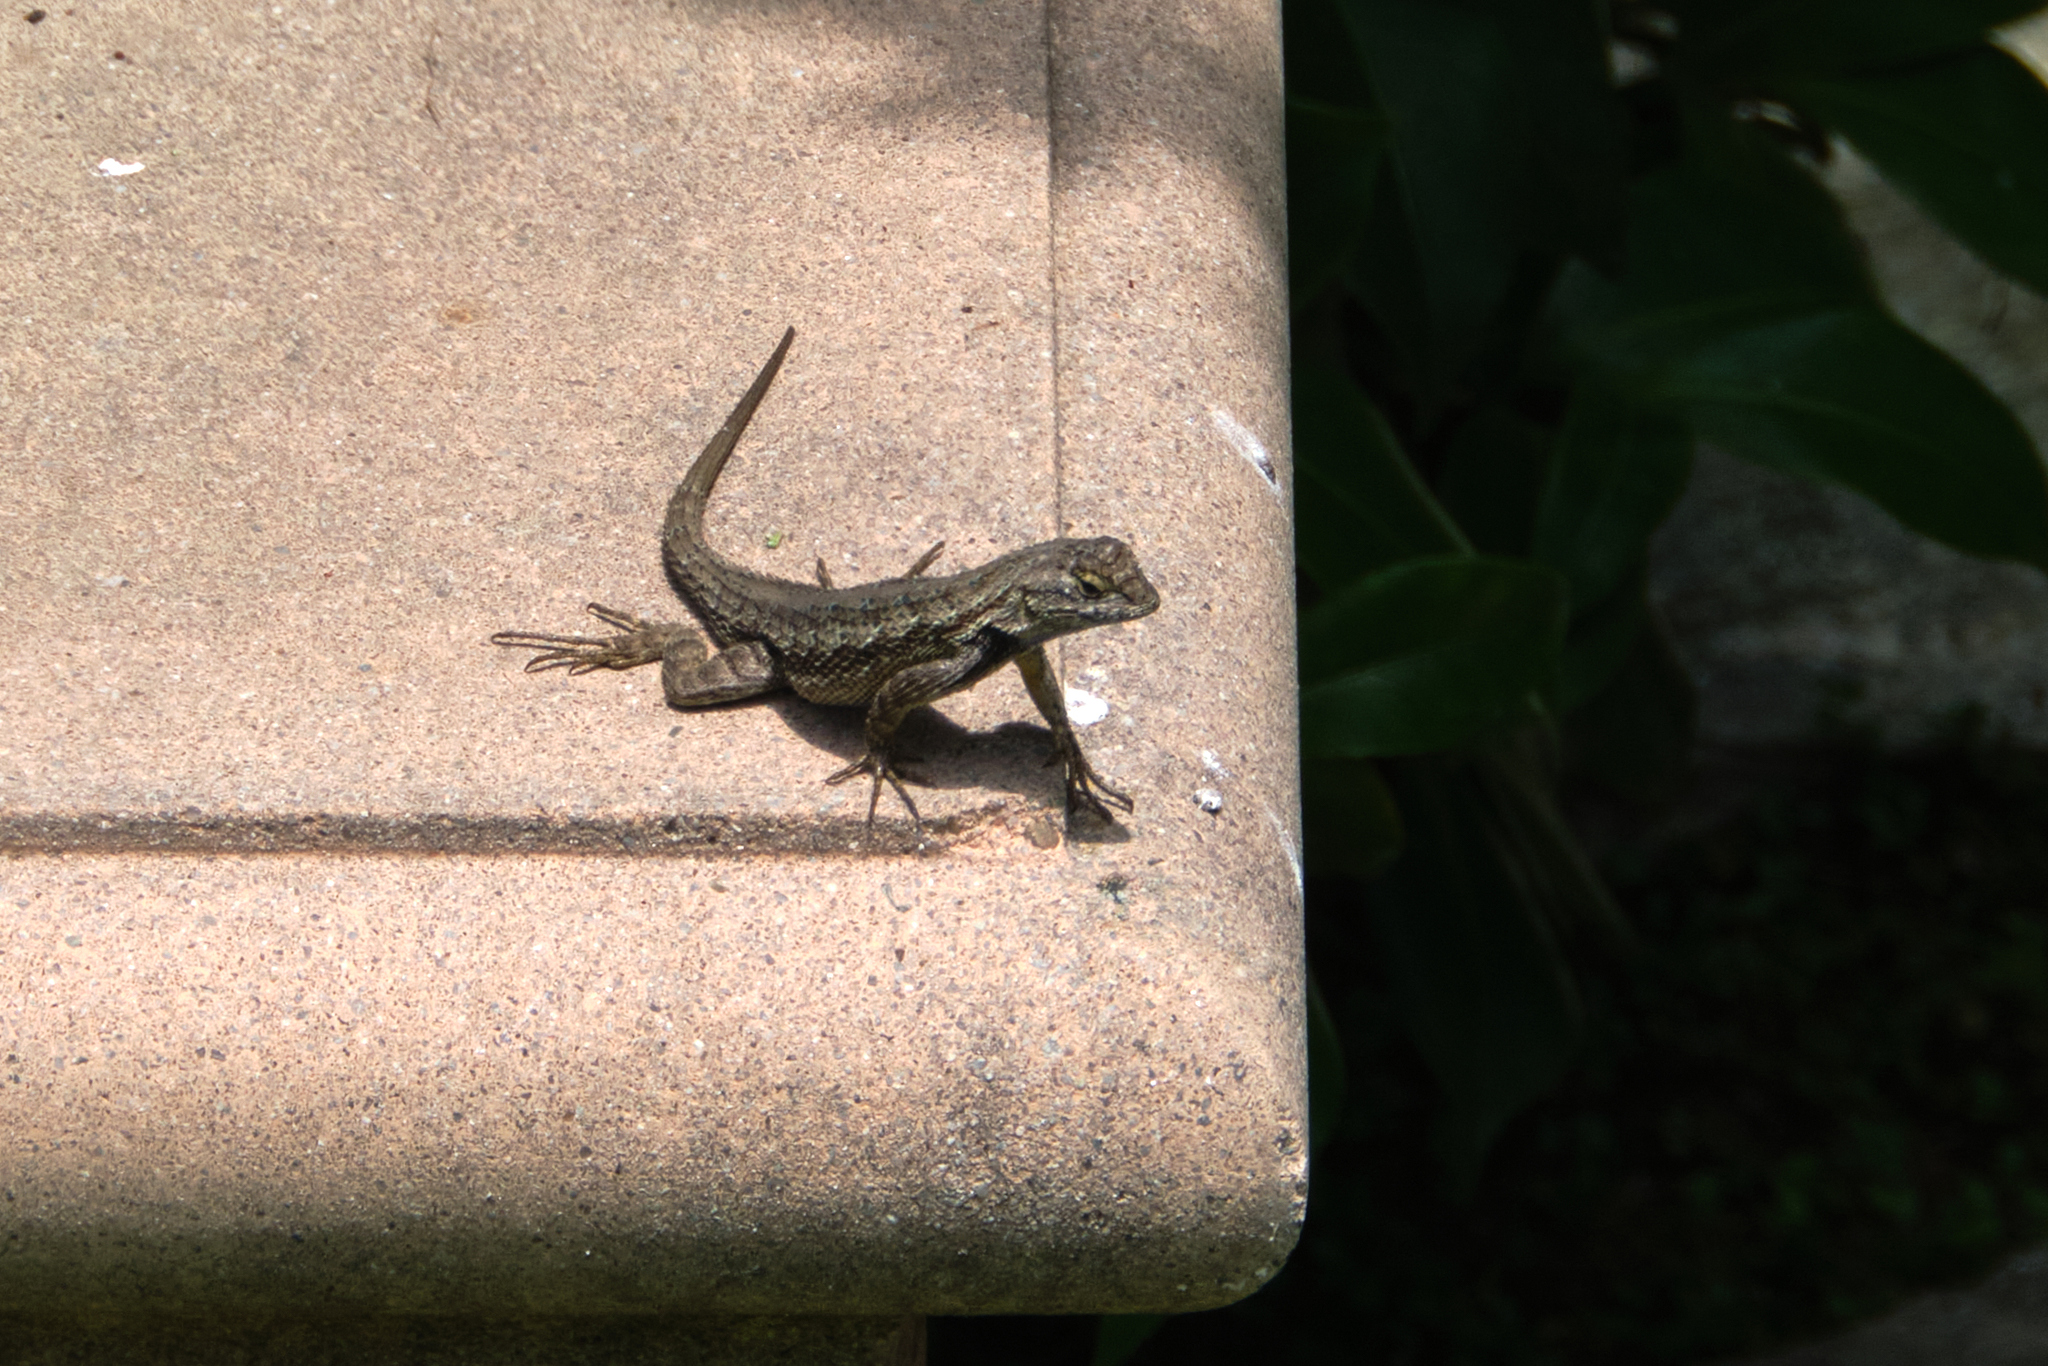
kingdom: Animalia
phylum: Chordata
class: Squamata
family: Phrynosomatidae
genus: Sceloporus
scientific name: Sceloporus occidentalis
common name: Western fence lizard
